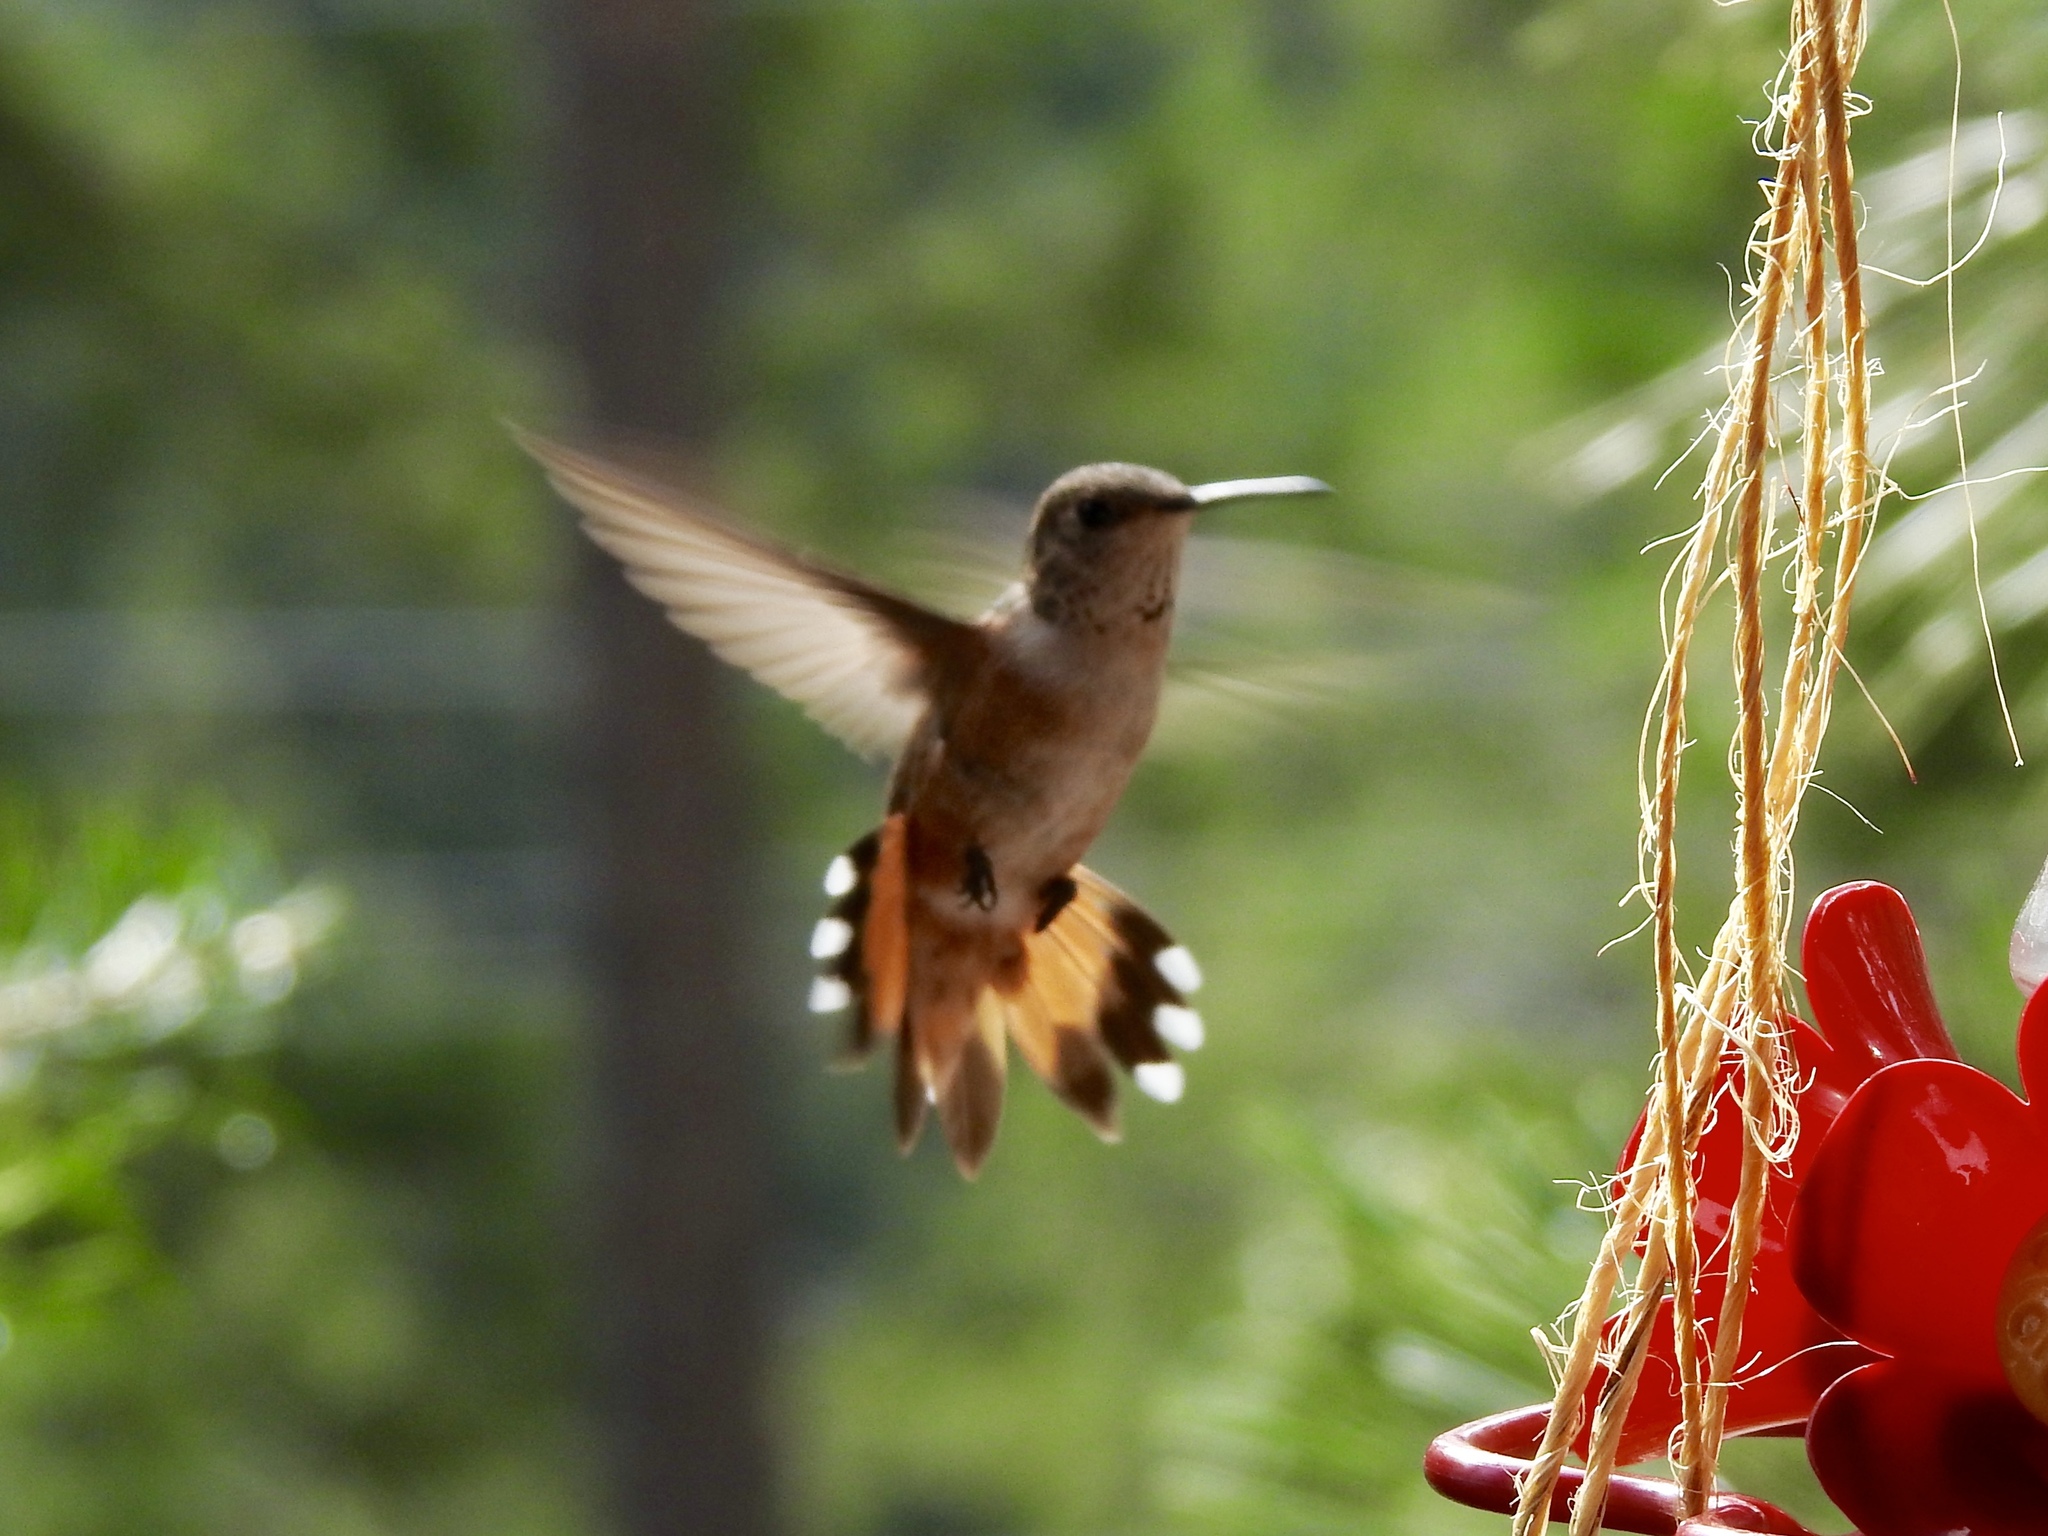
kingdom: Animalia
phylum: Chordata
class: Aves
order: Apodiformes
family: Trochilidae
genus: Selasphorus
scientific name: Selasphorus rufus
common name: Rufous hummingbird
